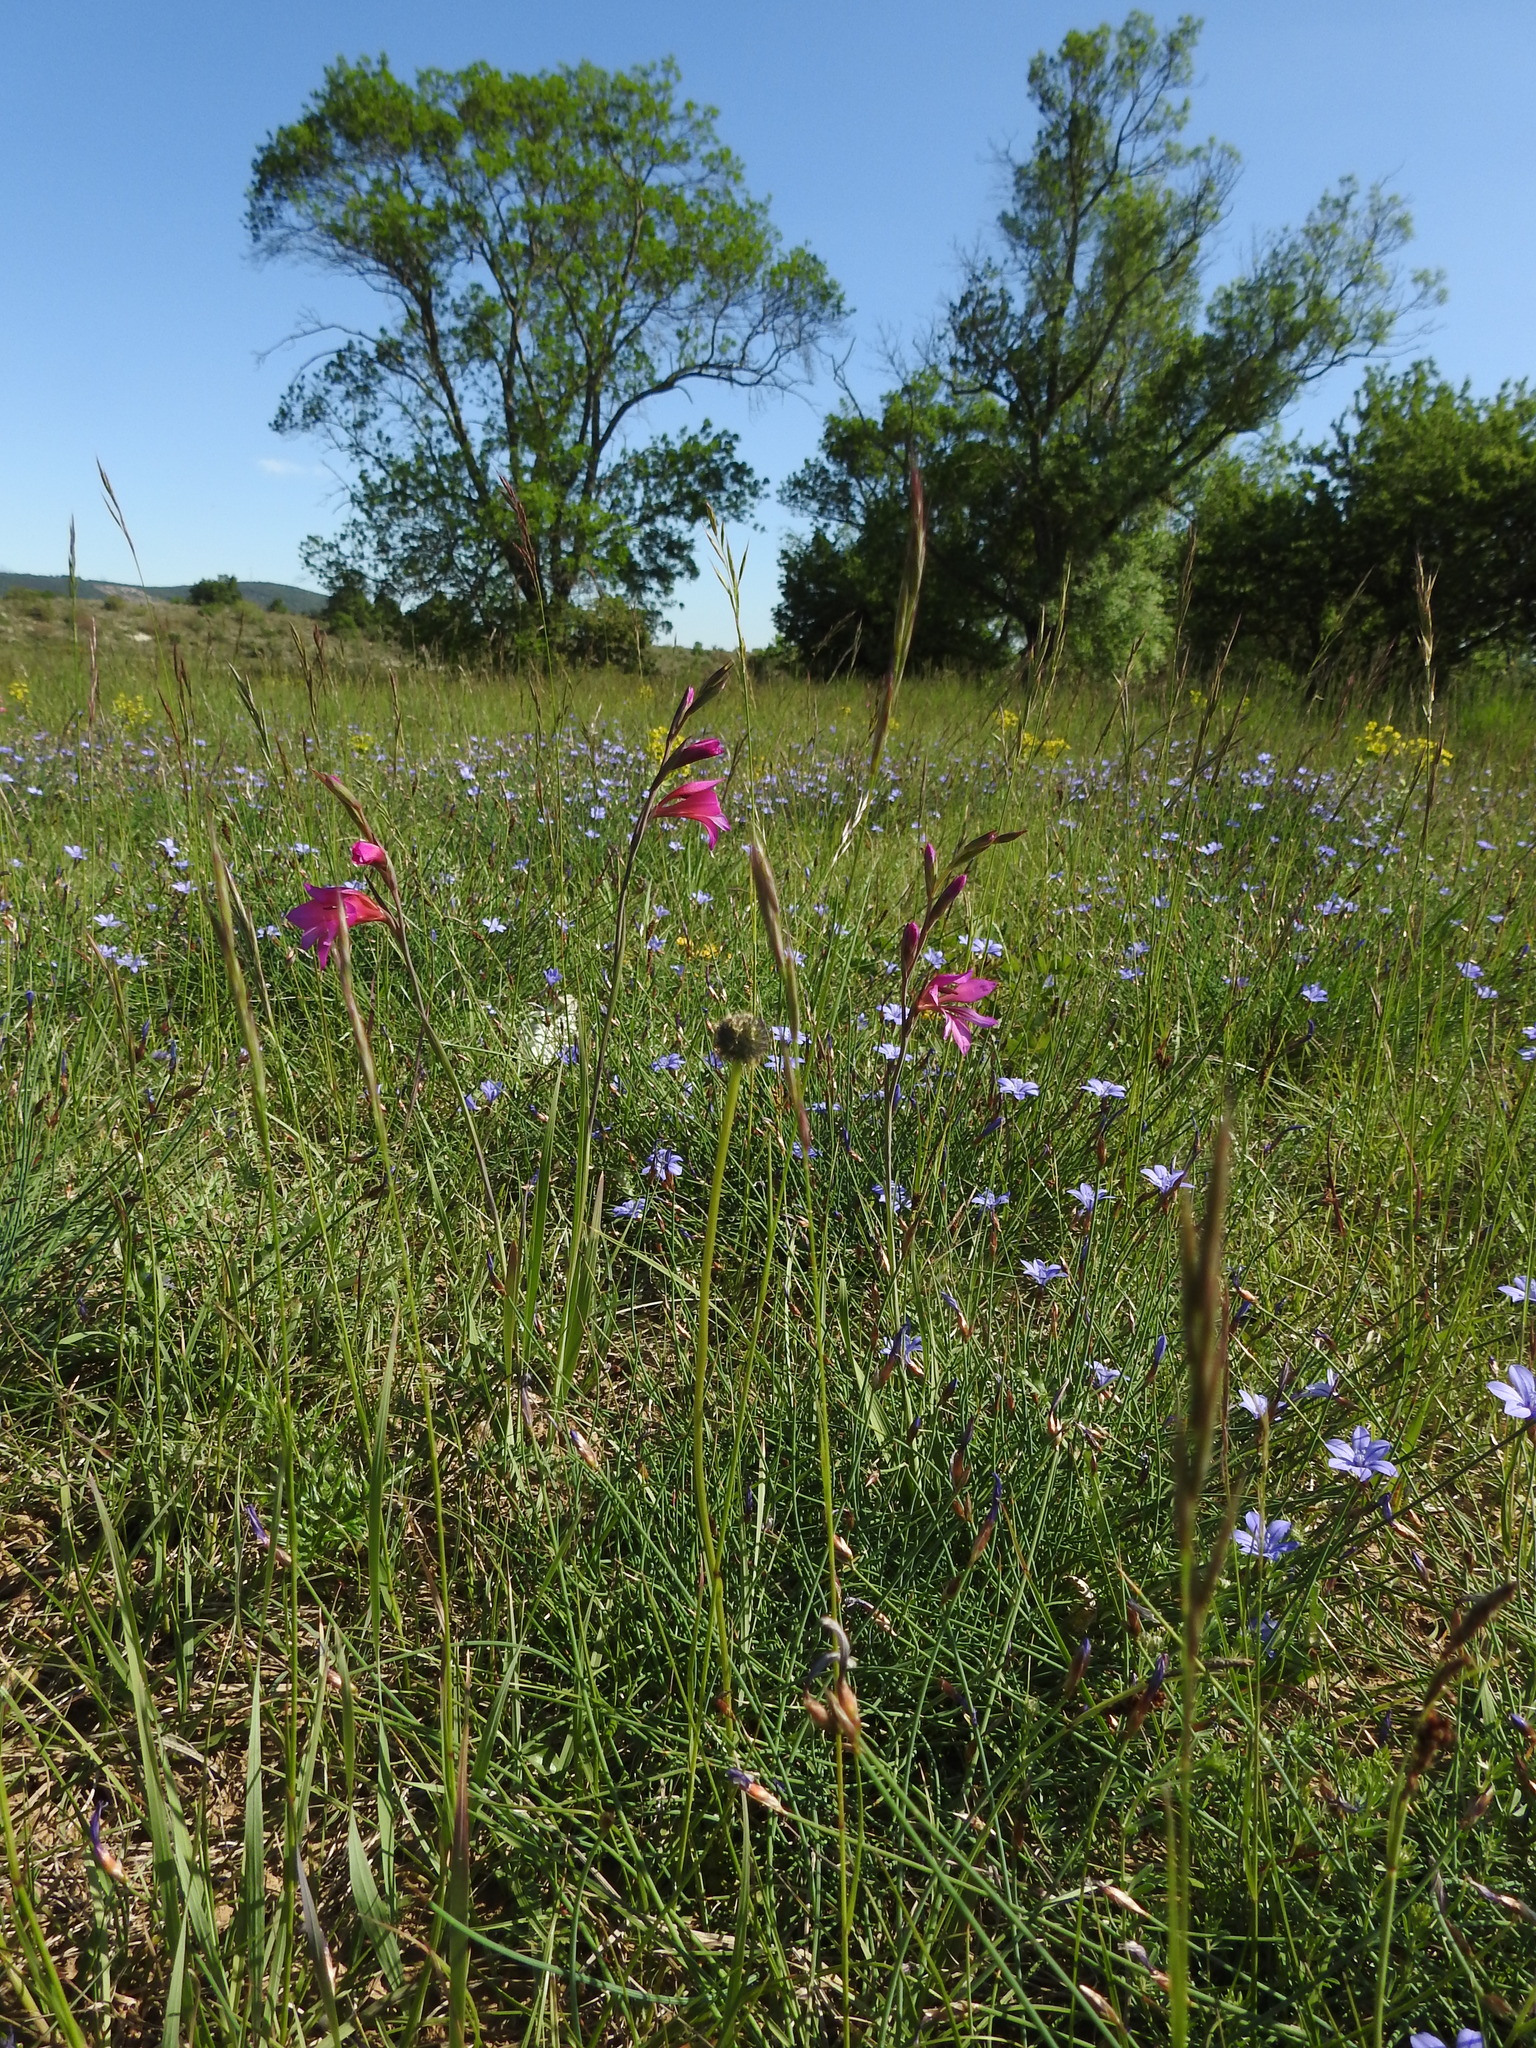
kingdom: Plantae
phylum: Tracheophyta
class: Liliopsida
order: Asparagales
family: Iridaceae
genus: Gladiolus
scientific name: Gladiolus dubius
